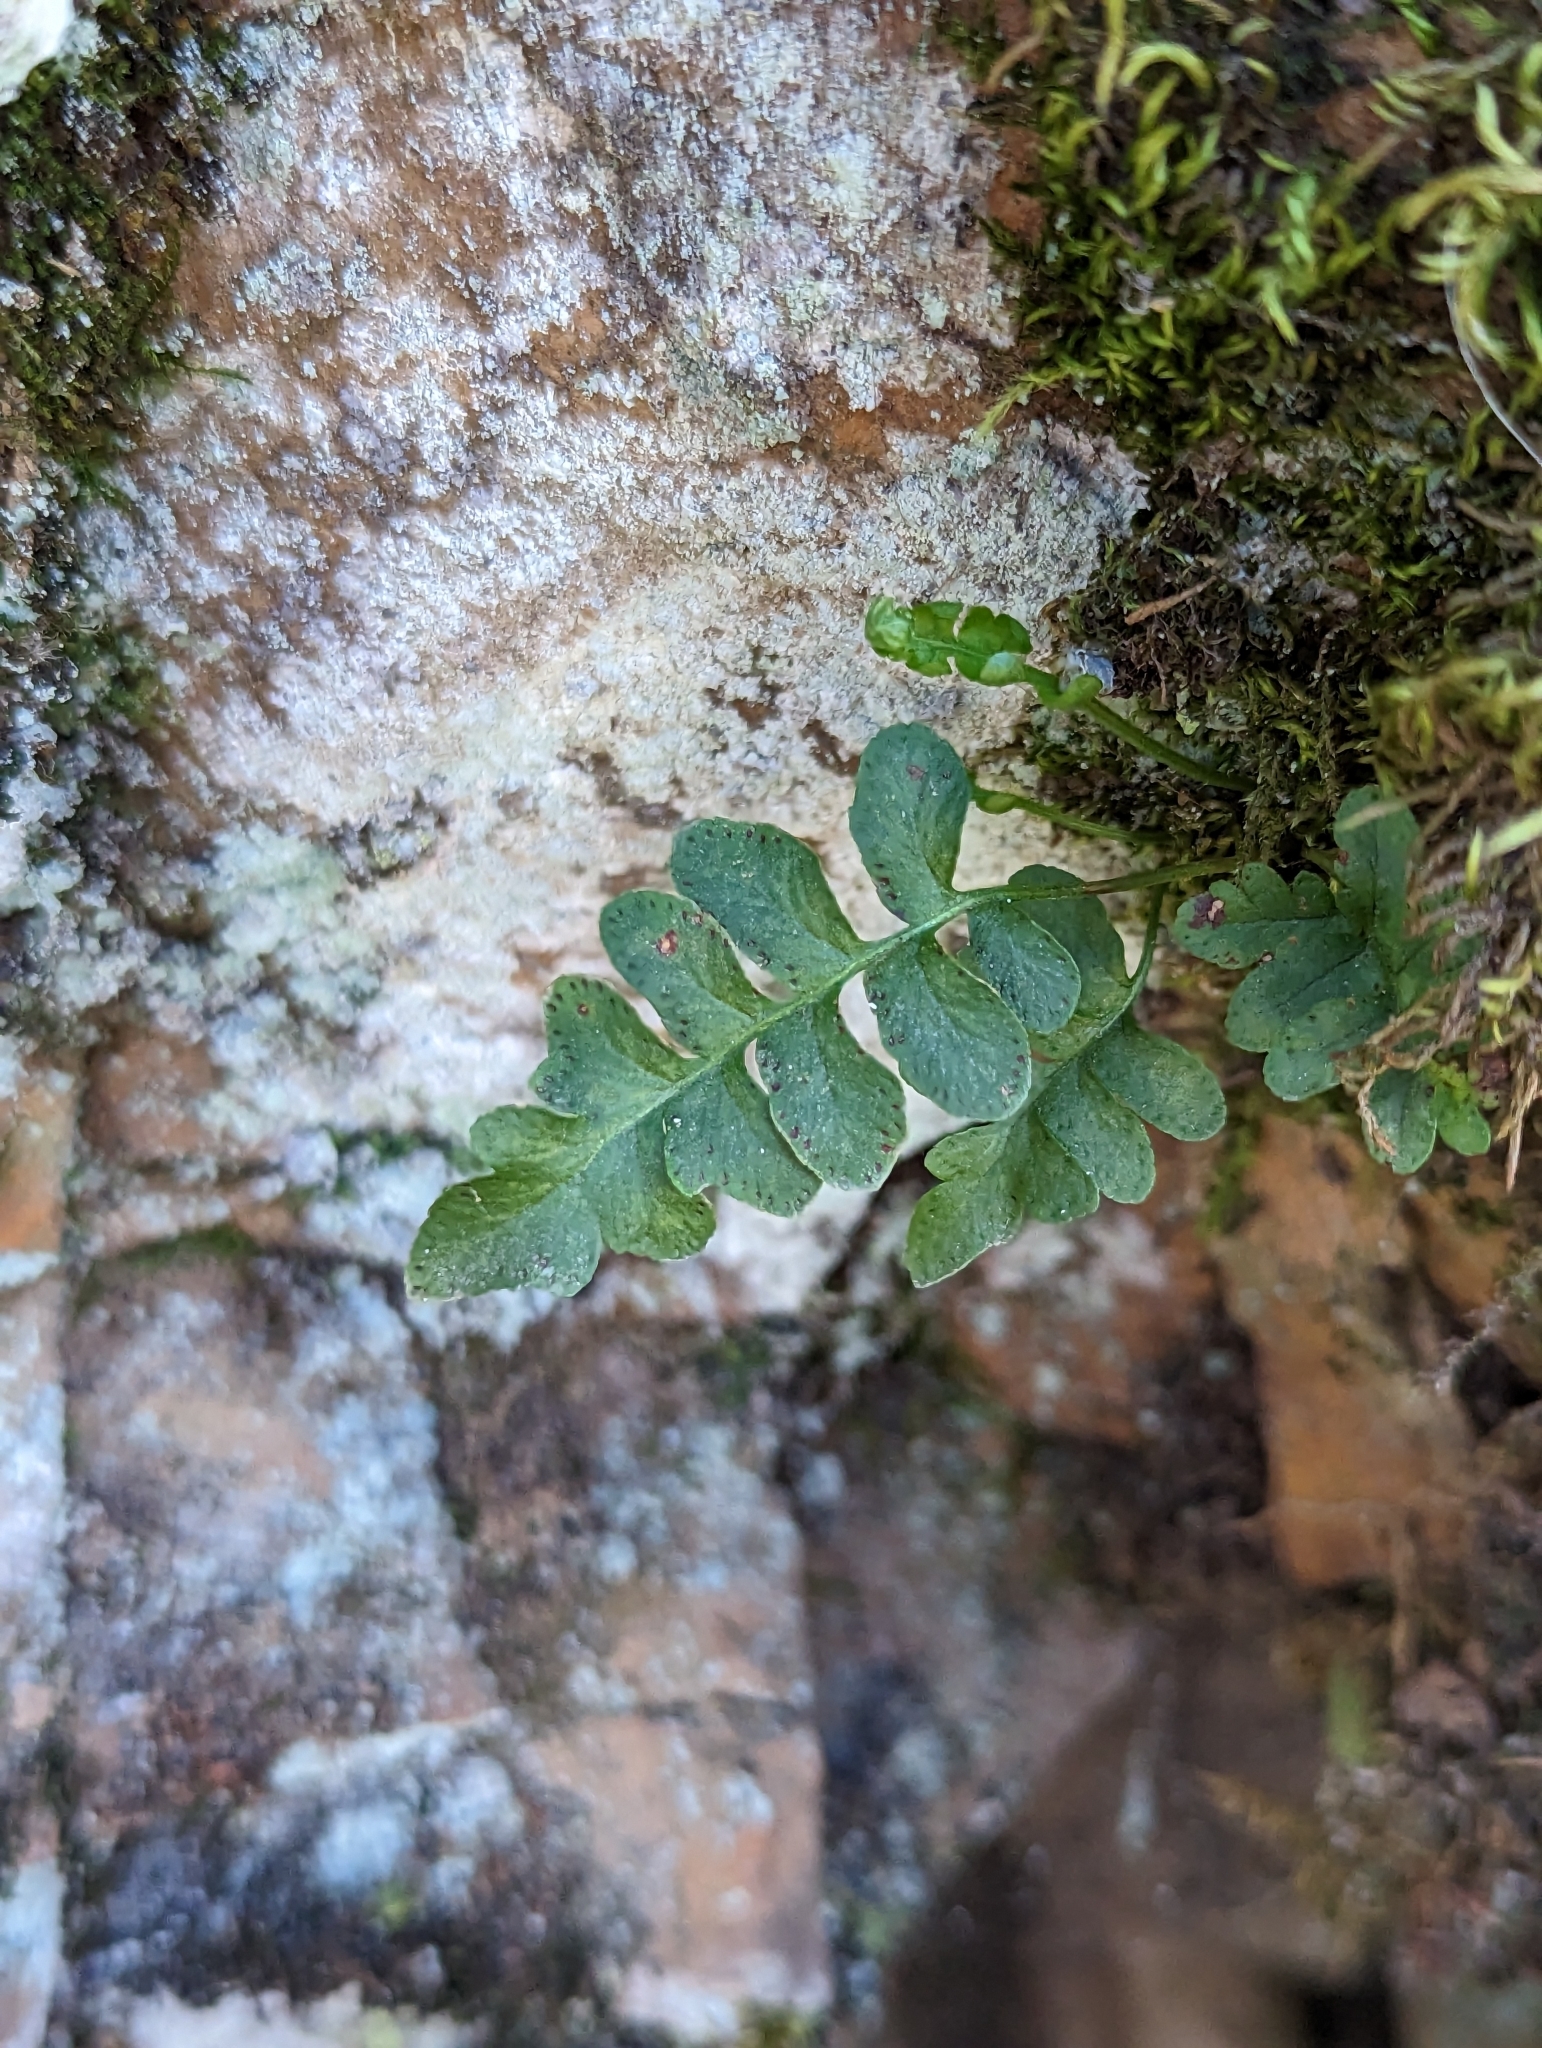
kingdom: Plantae
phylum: Tracheophyta
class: Polypodiopsida
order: Polypodiales
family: Polypodiaceae
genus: Polypodium
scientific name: Polypodium hesperium
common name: Western polypody
